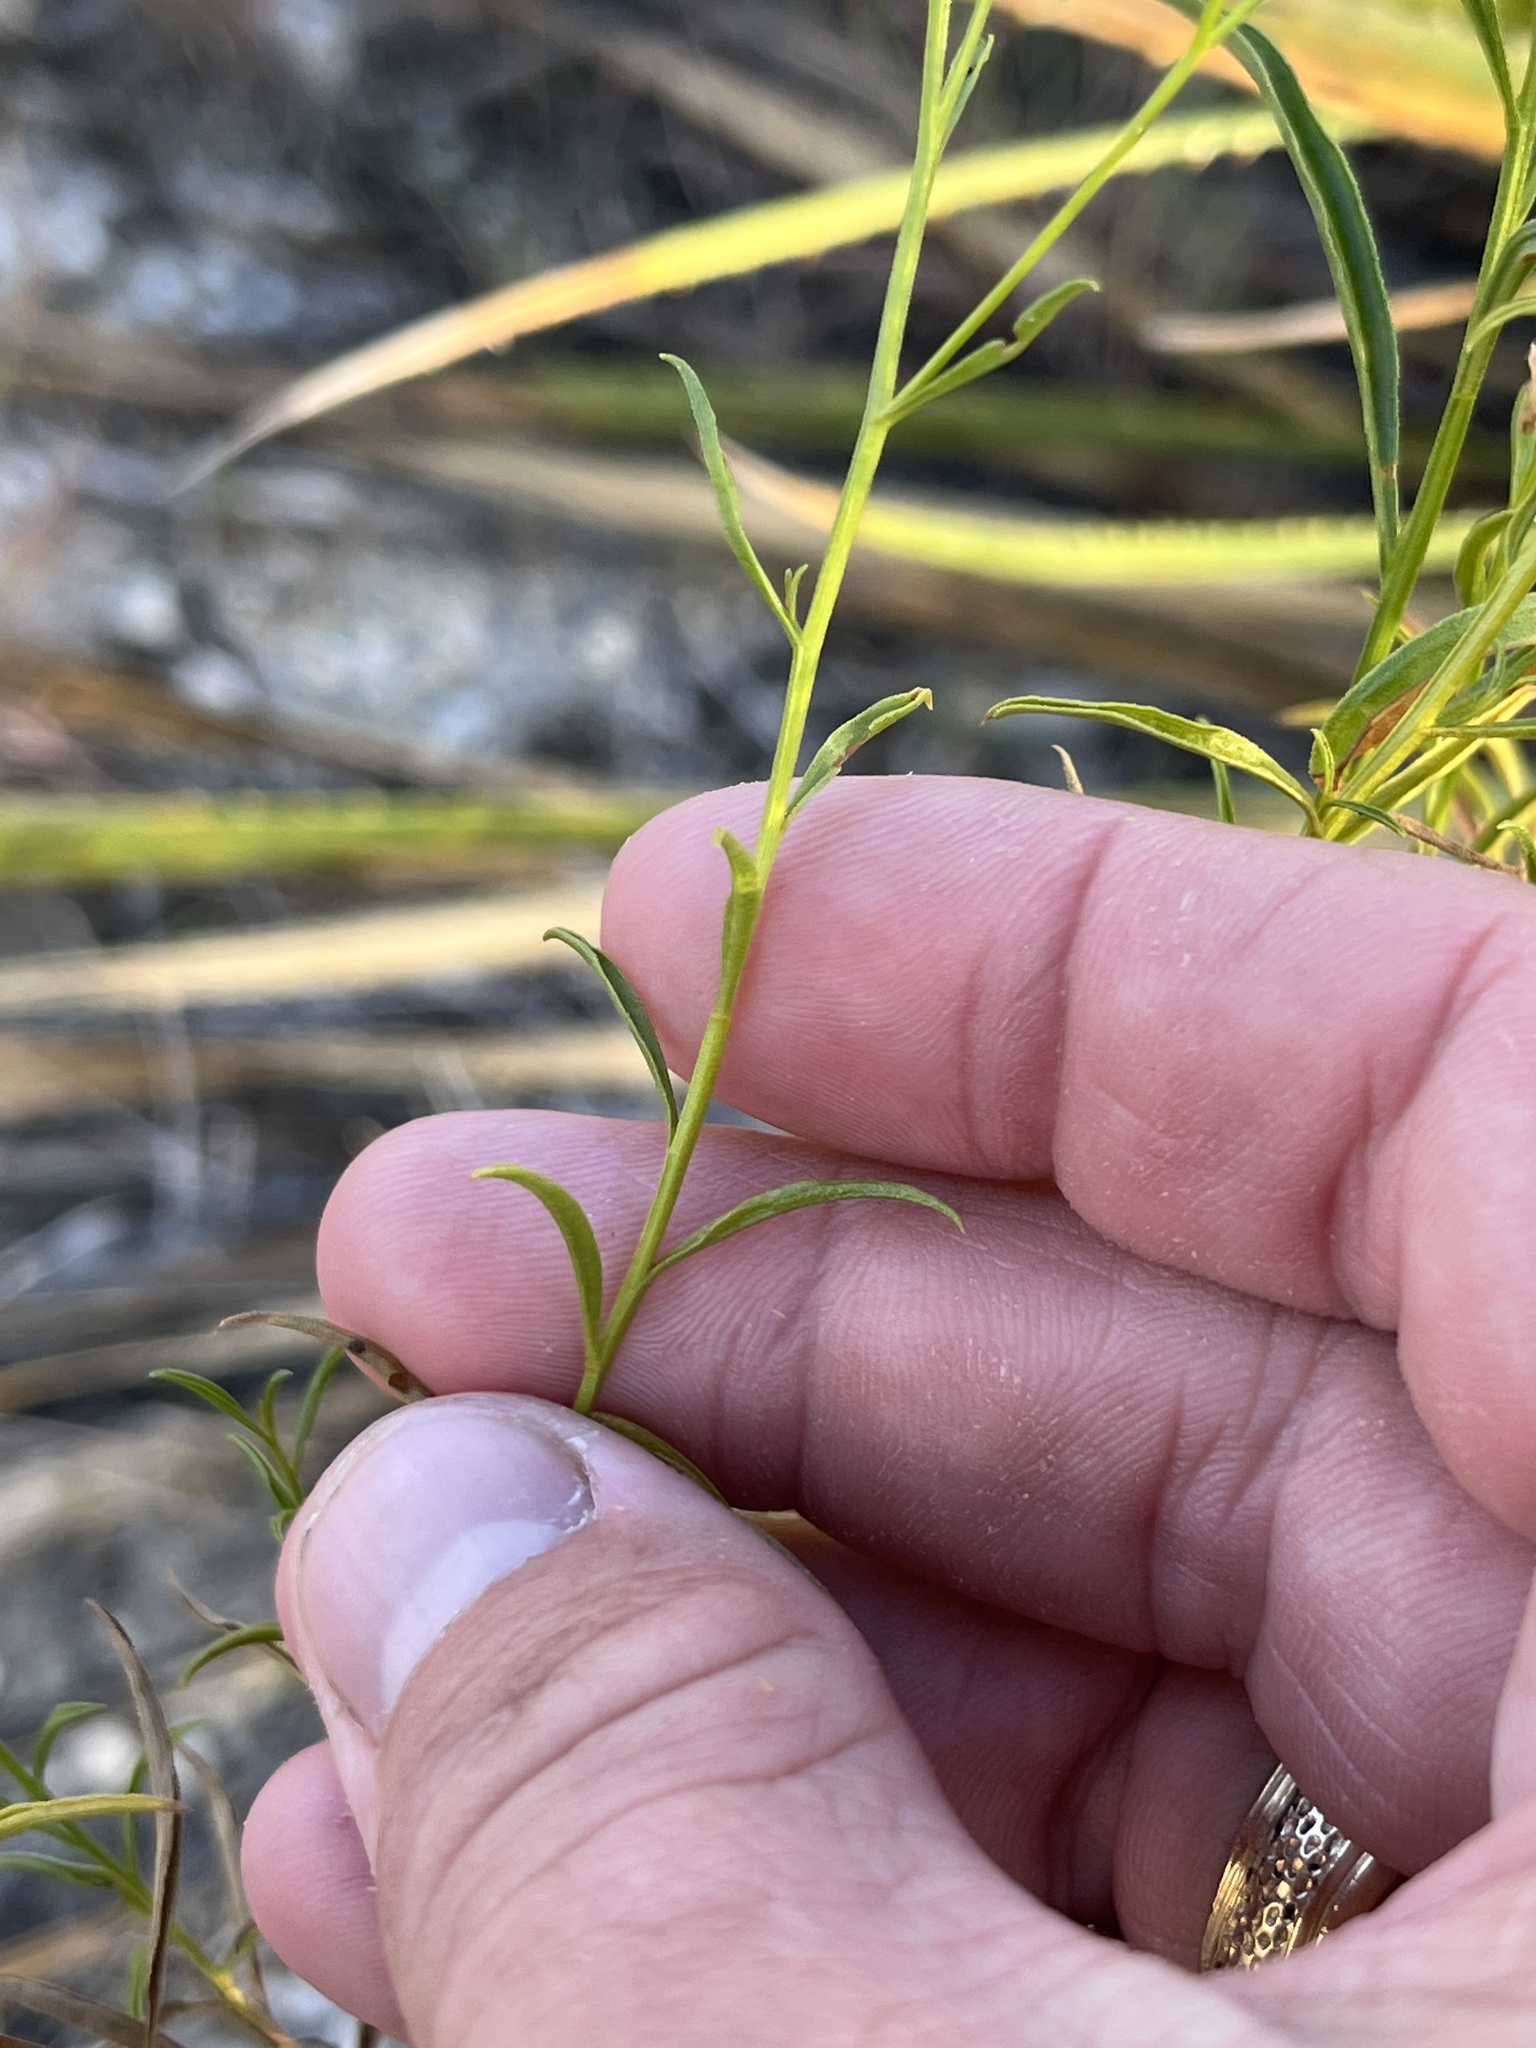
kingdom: Plantae
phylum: Tracheophyta
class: Magnoliopsida
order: Asterales
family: Asteraceae
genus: Gymnosperma
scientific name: Gymnosperma glutinosum
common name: Gumhead
